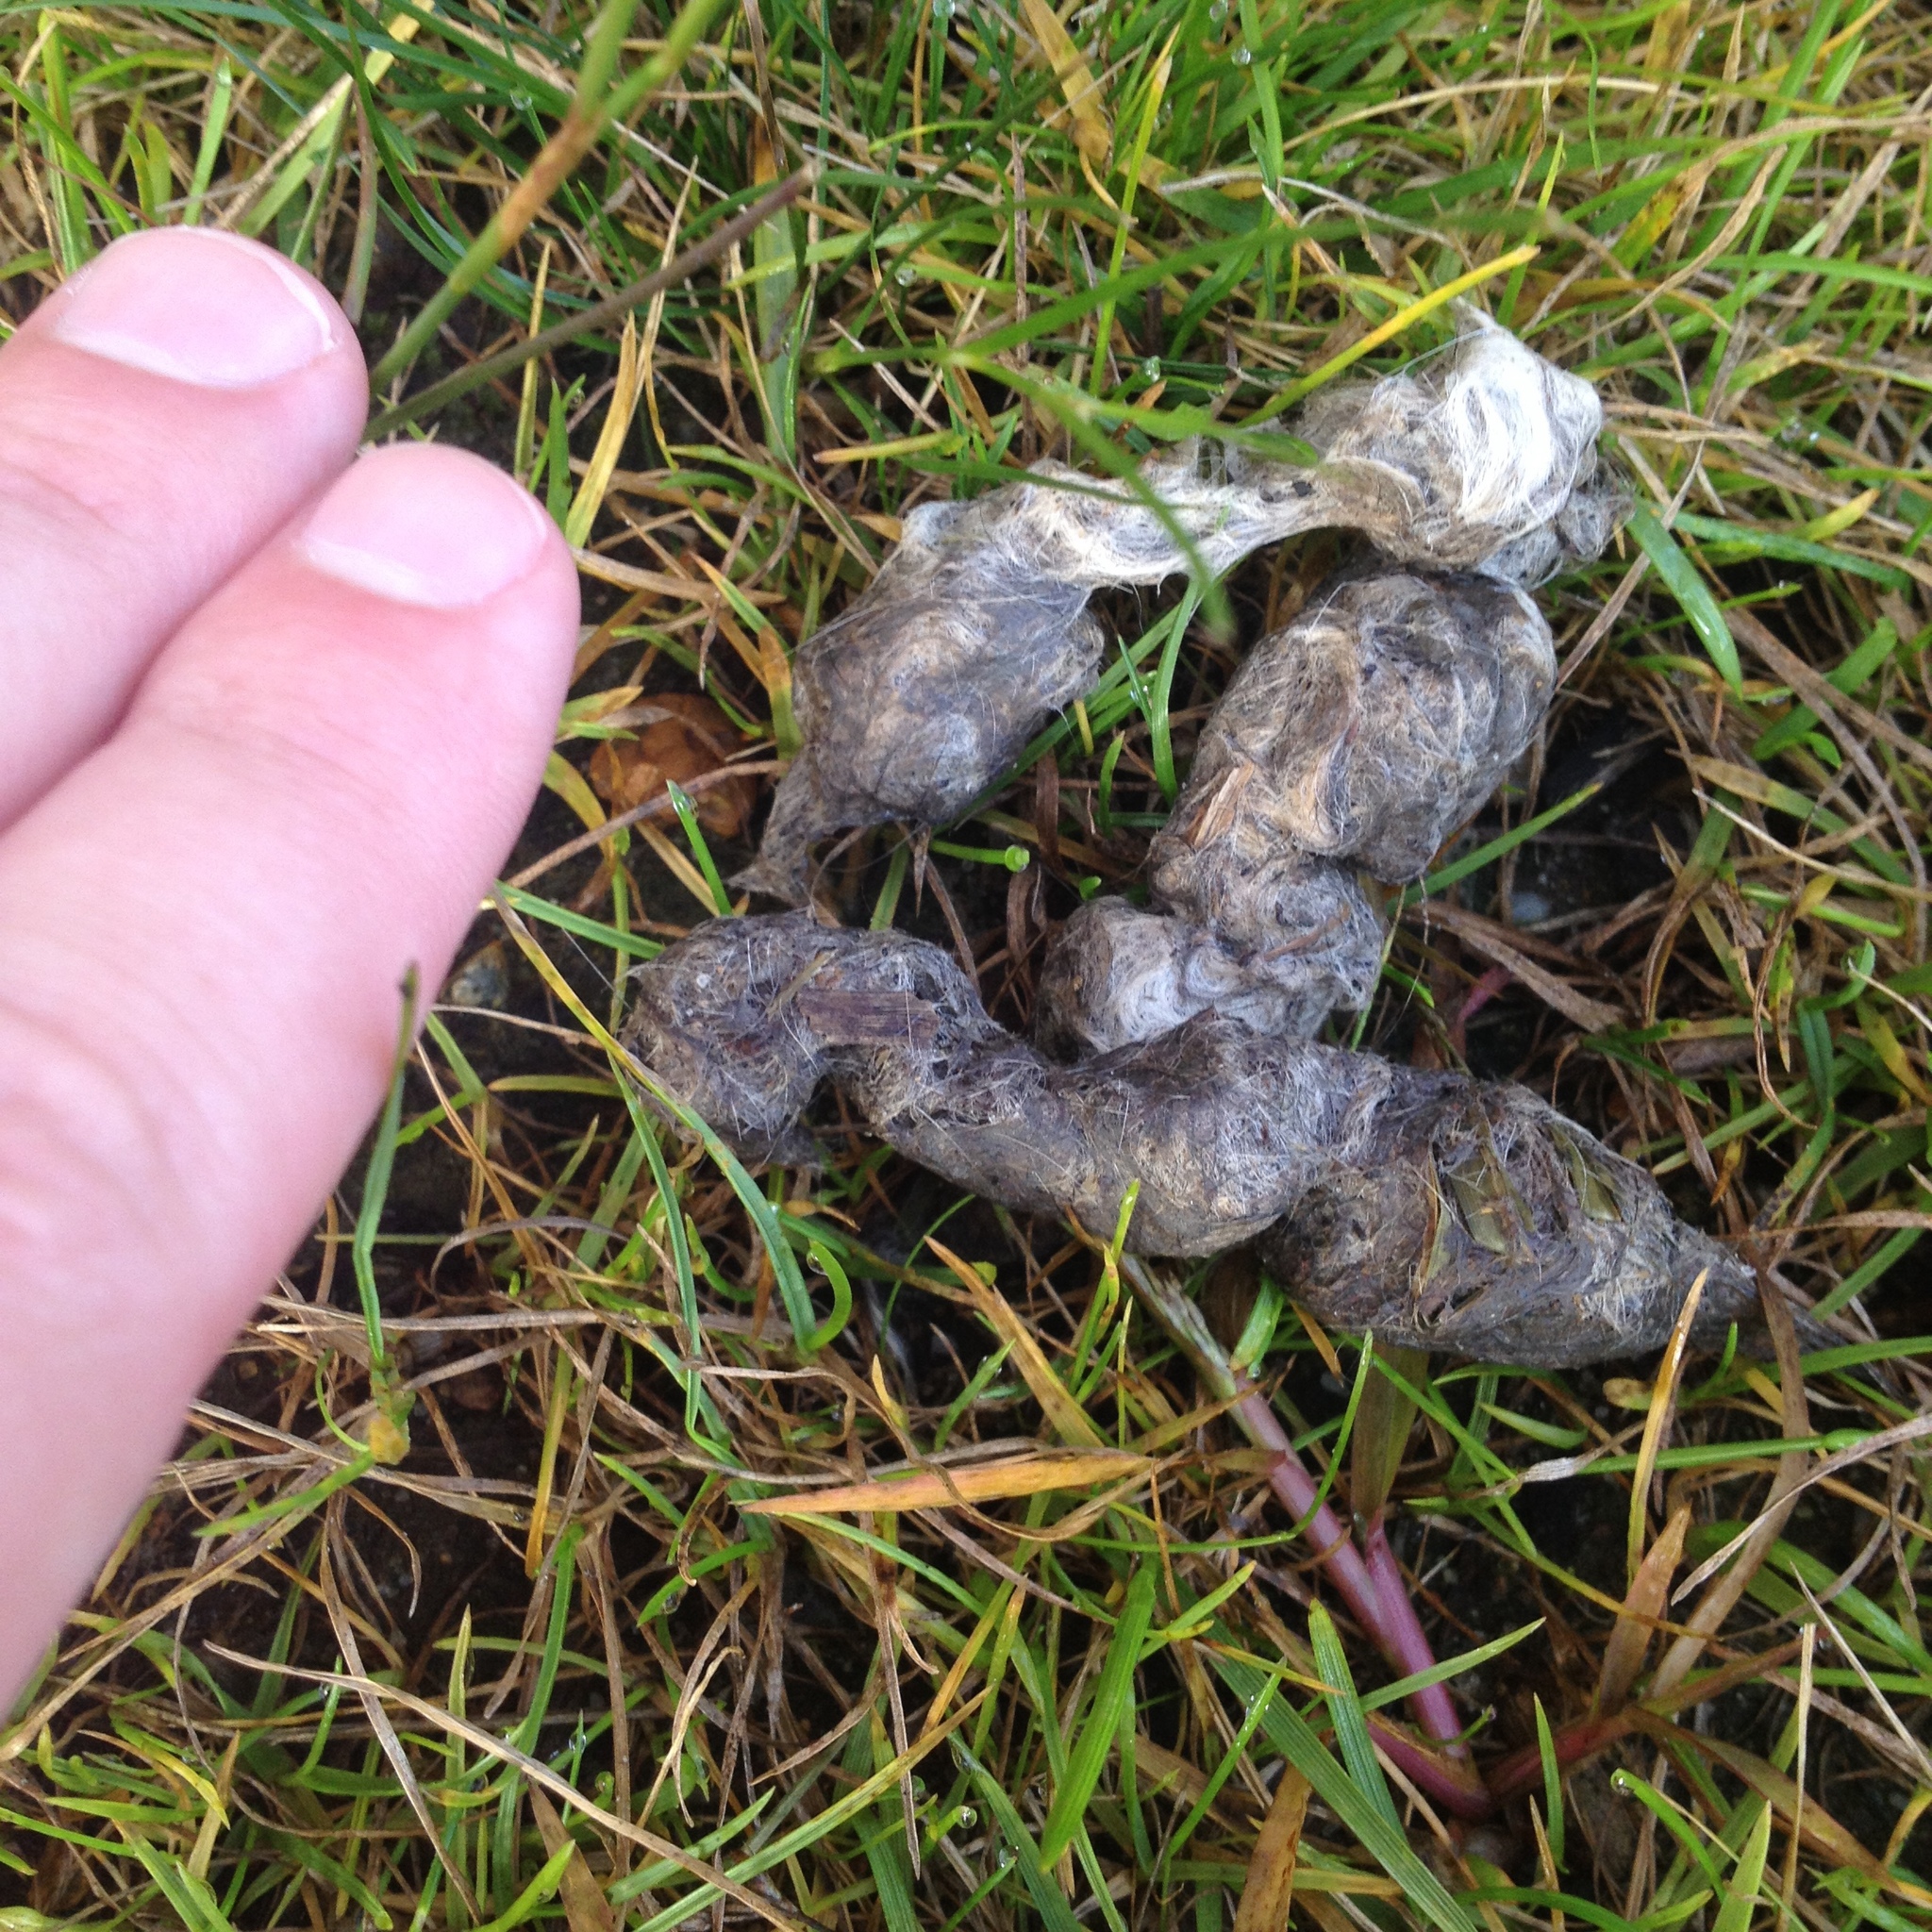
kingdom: Animalia
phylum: Chordata
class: Mammalia
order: Carnivora
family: Canidae
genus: Canis
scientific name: Canis latrans
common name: Coyote
